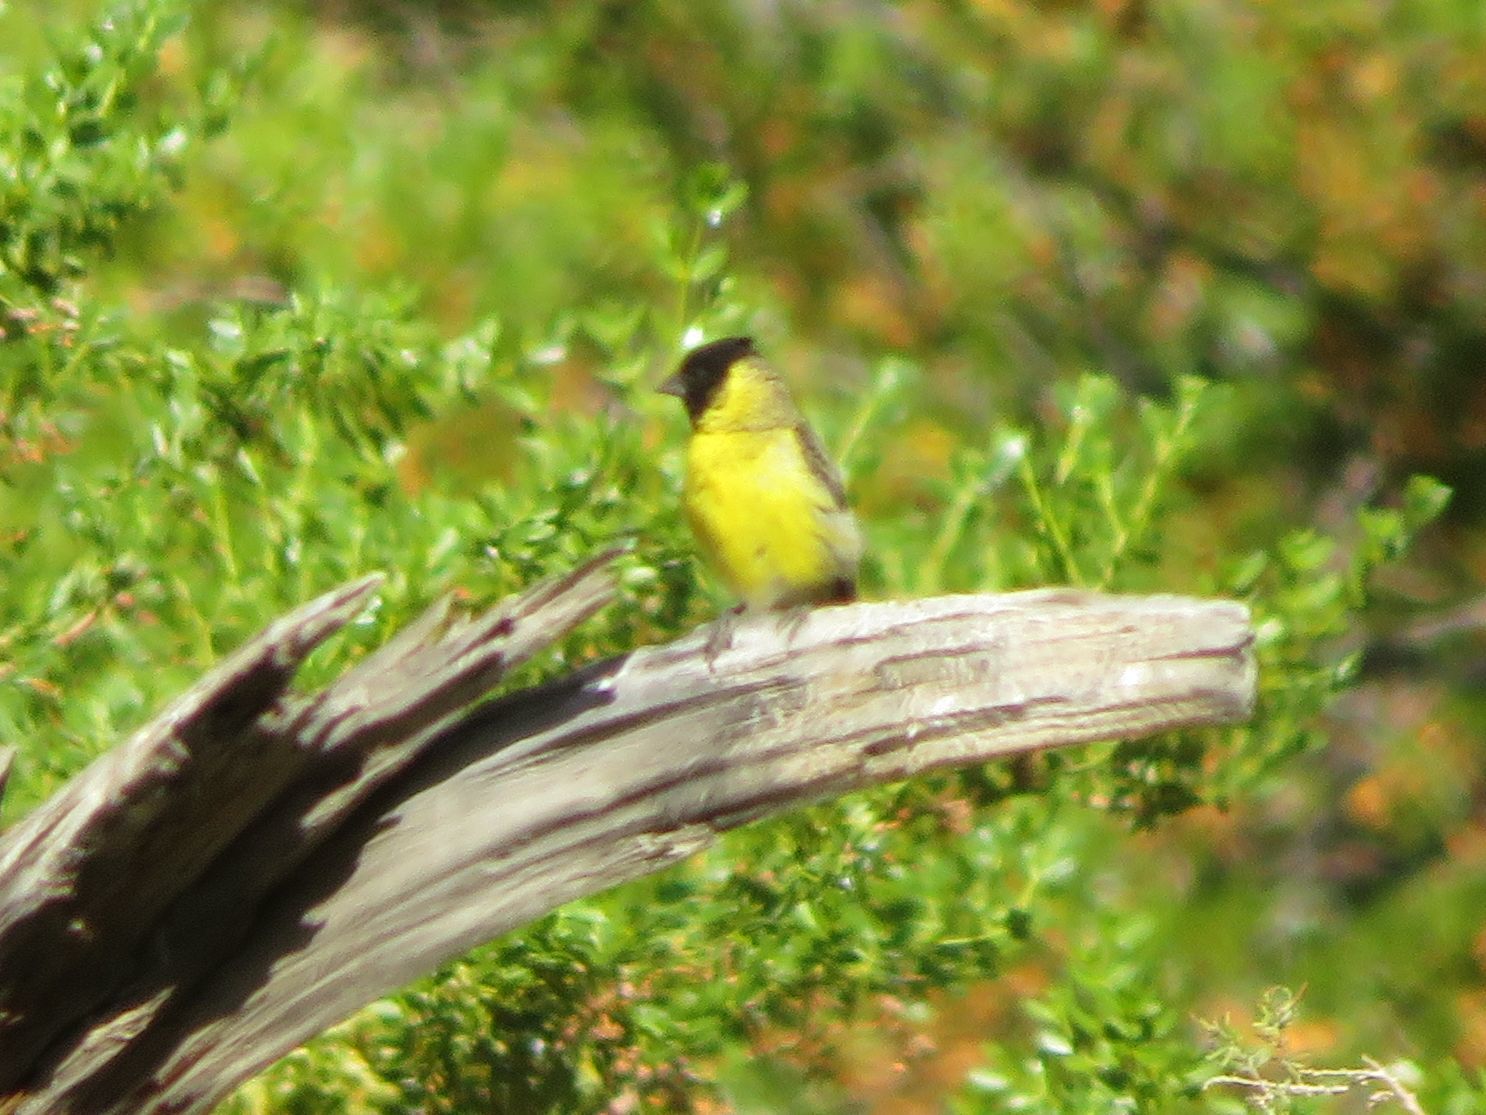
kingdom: Animalia
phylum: Chordata
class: Aves
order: Passeriformes
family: Fringillidae
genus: Spinus
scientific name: Spinus magellanicus
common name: Hooded siskin
